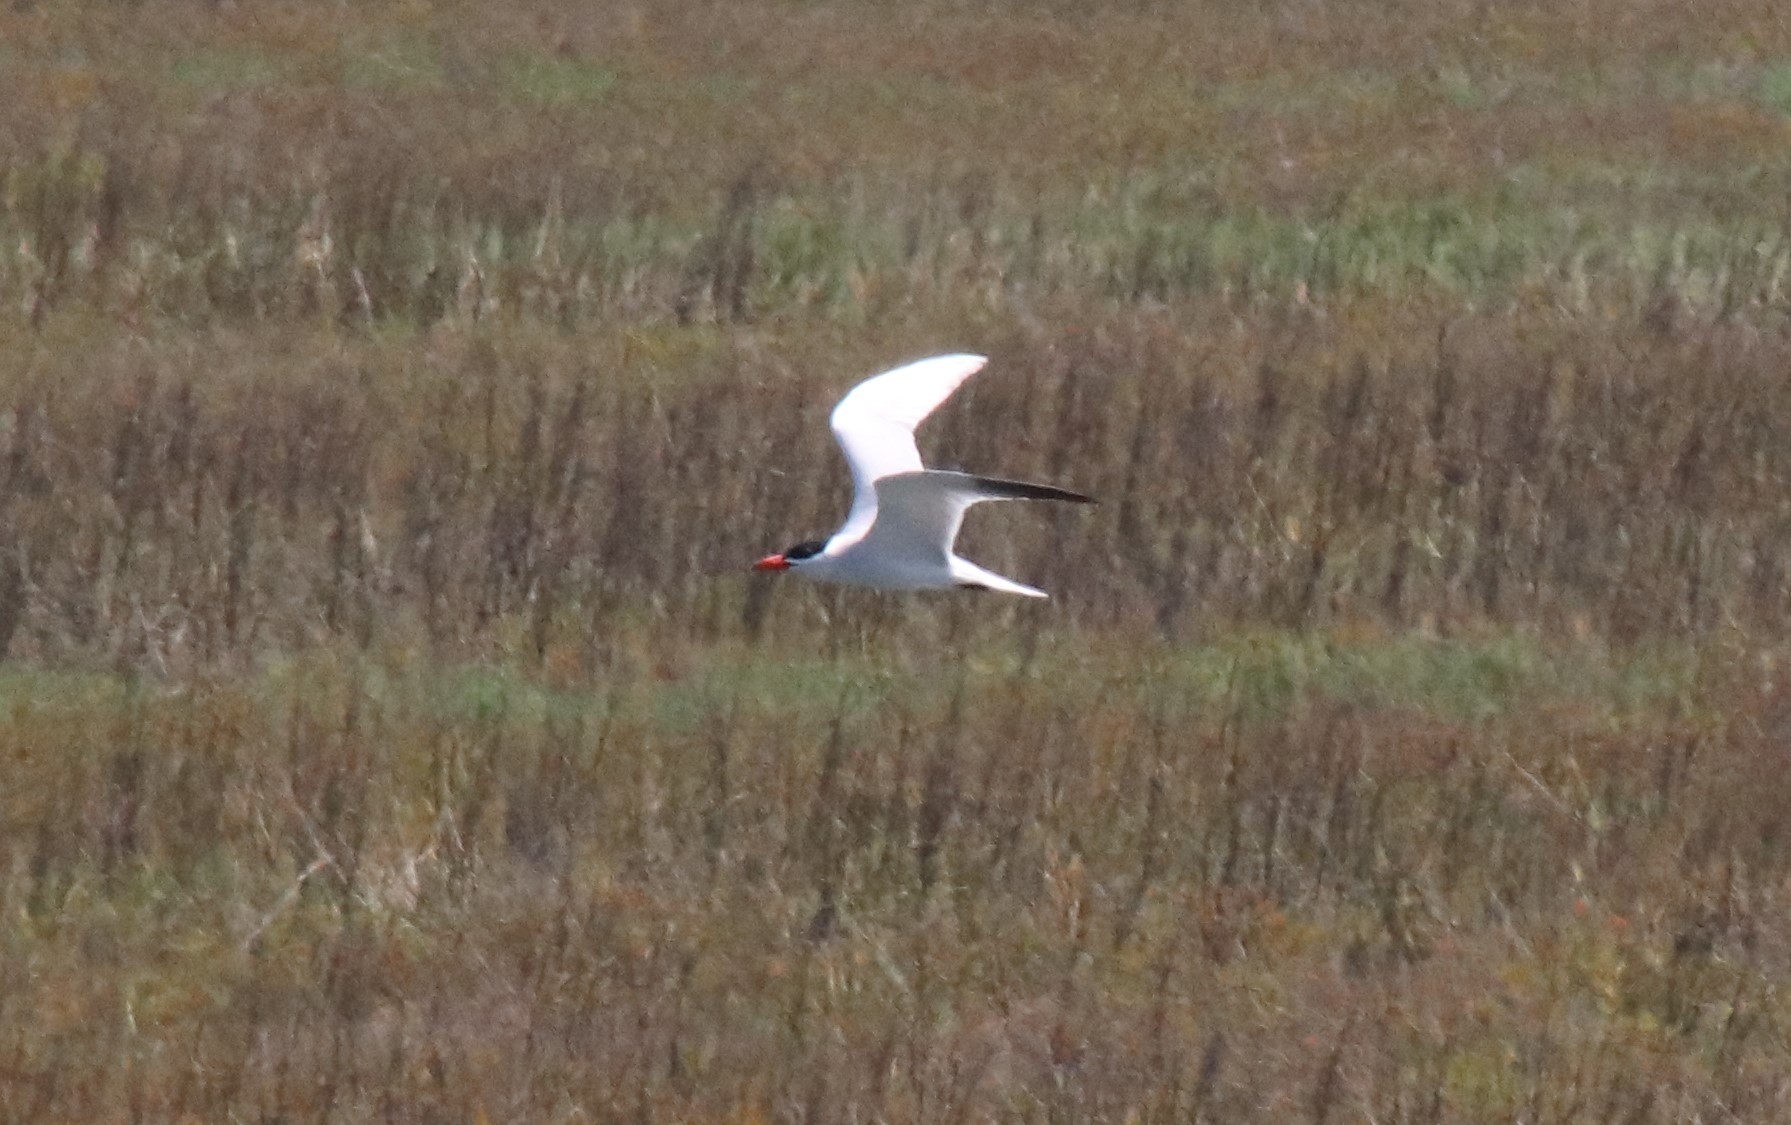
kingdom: Animalia
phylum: Chordata
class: Aves
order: Charadriiformes
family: Laridae
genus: Hydroprogne
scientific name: Hydroprogne caspia
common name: Caspian tern
